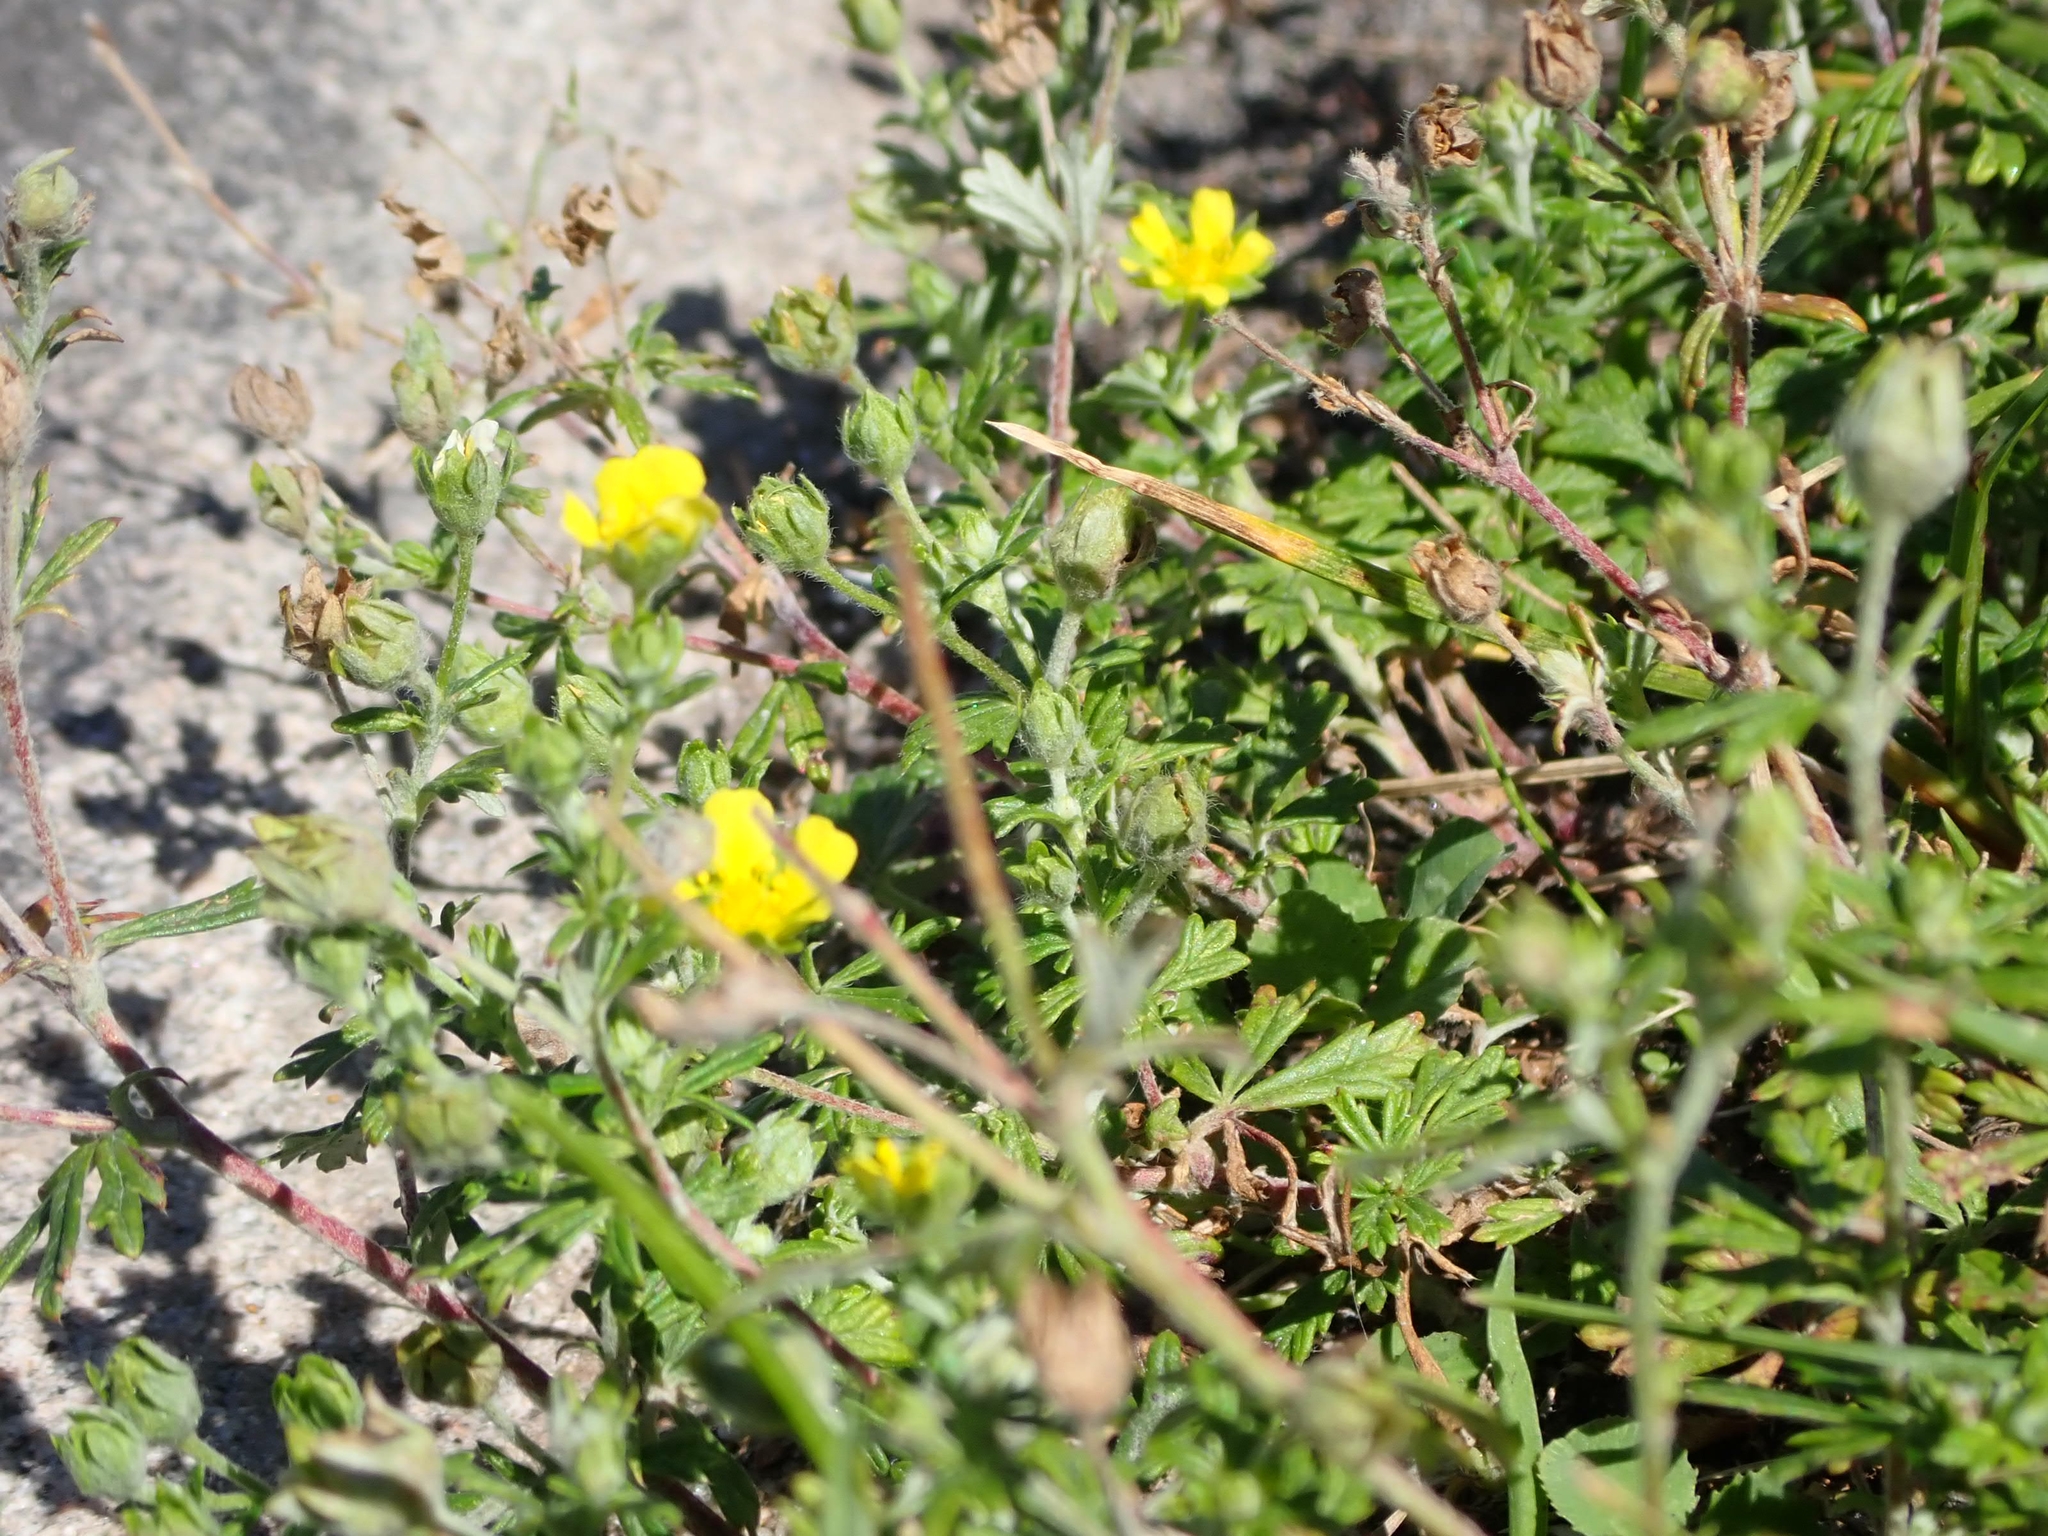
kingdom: Plantae
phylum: Tracheophyta
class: Magnoliopsida
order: Rosales
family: Rosaceae
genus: Potentilla
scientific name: Potentilla argentea
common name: Hoary cinquefoil
